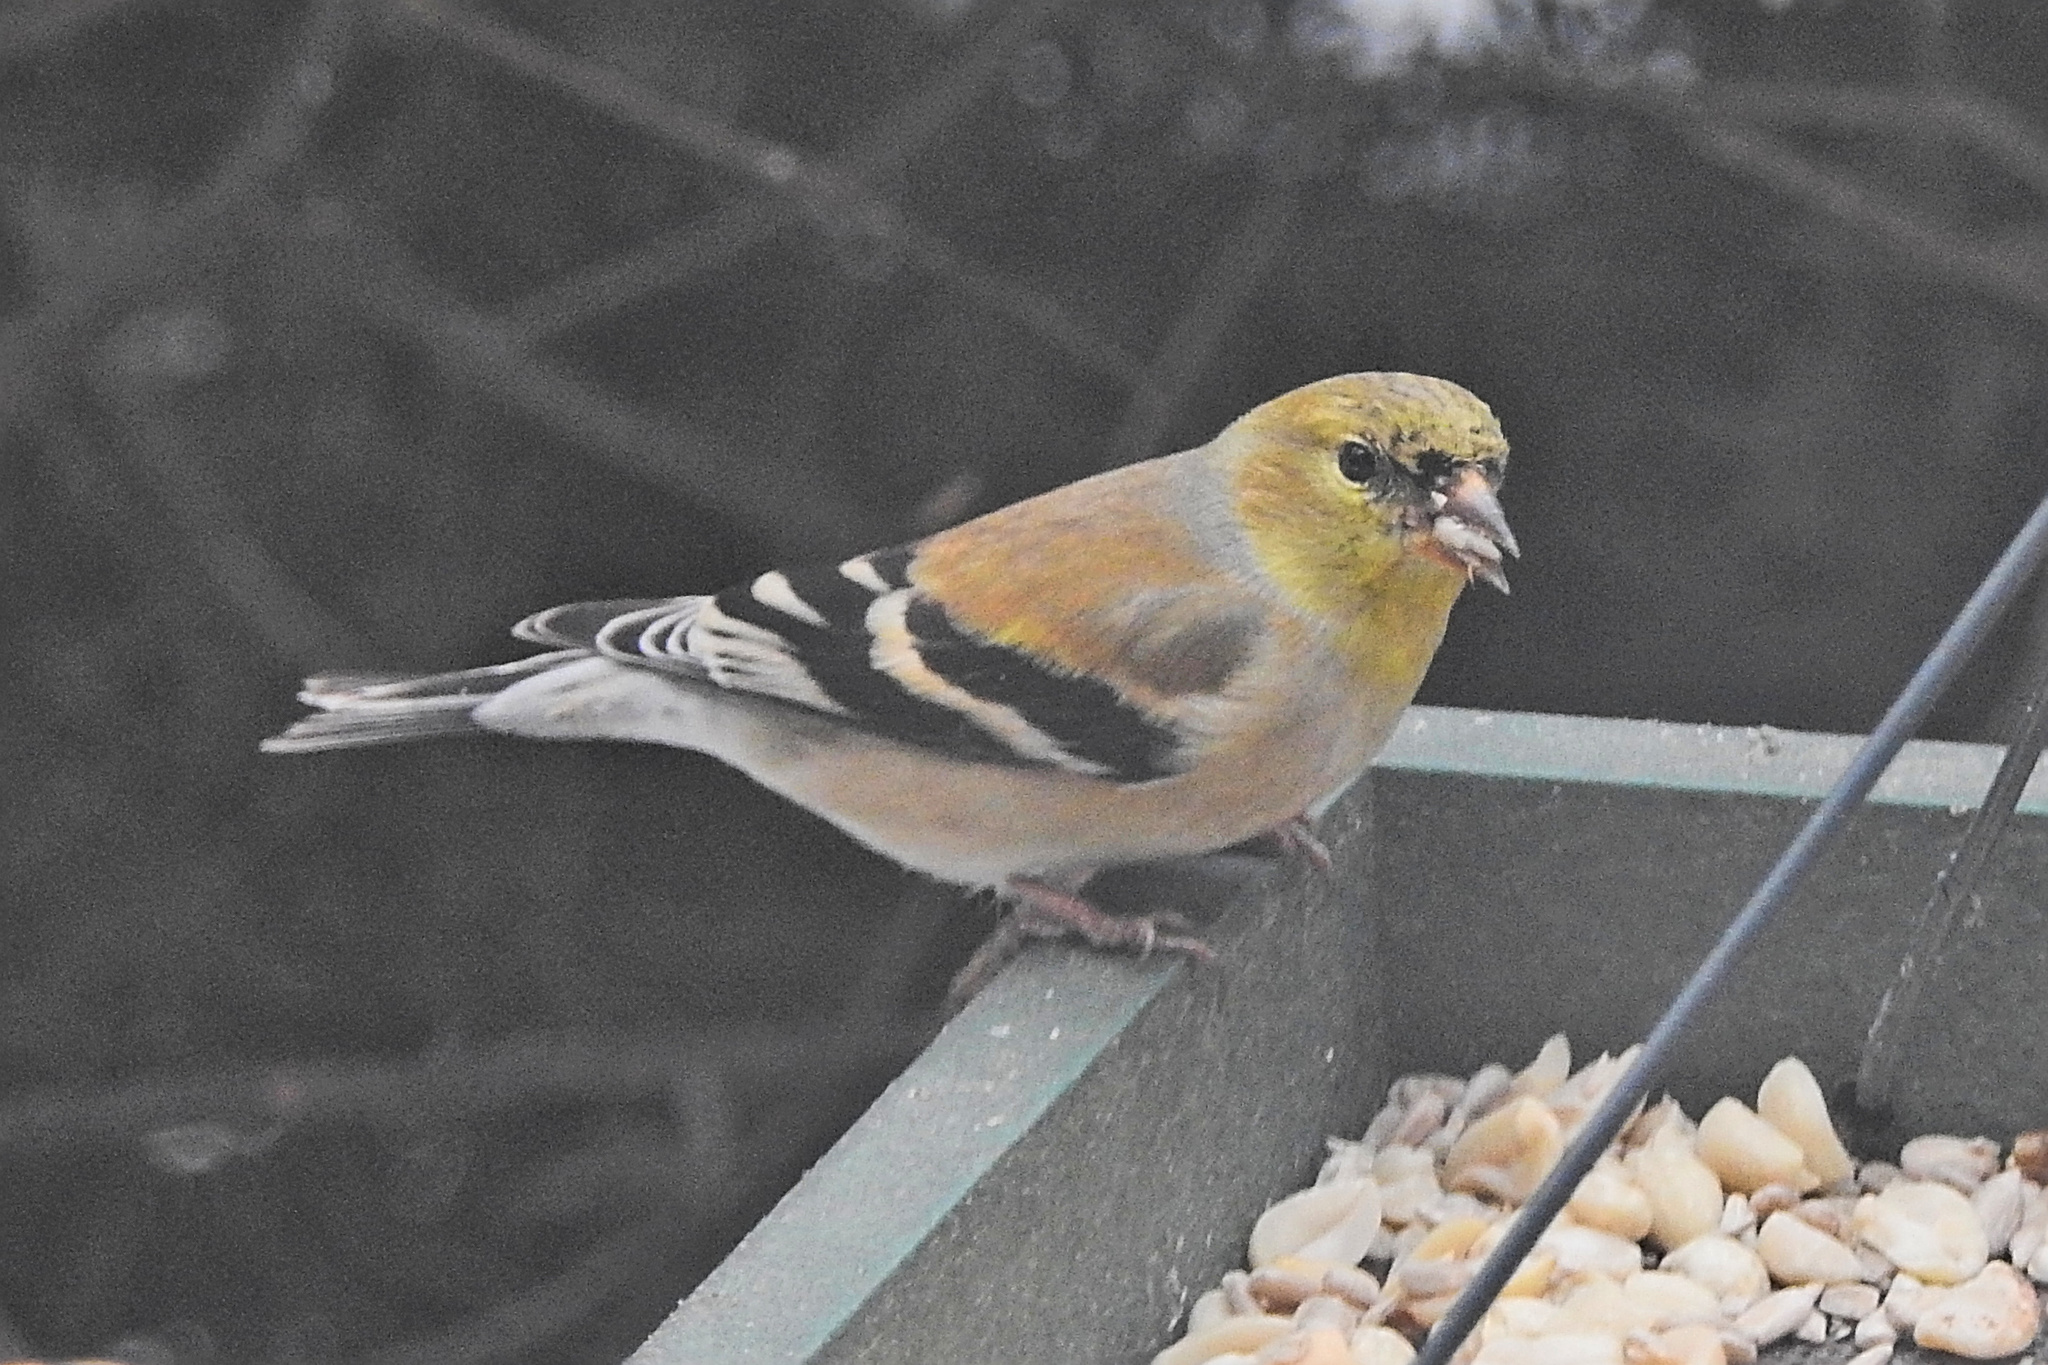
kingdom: Animalia
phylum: Chordata
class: Aves
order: Passeriformes
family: Fringillidae
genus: Spinus
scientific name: Spinus tristis
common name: American goldfinch
